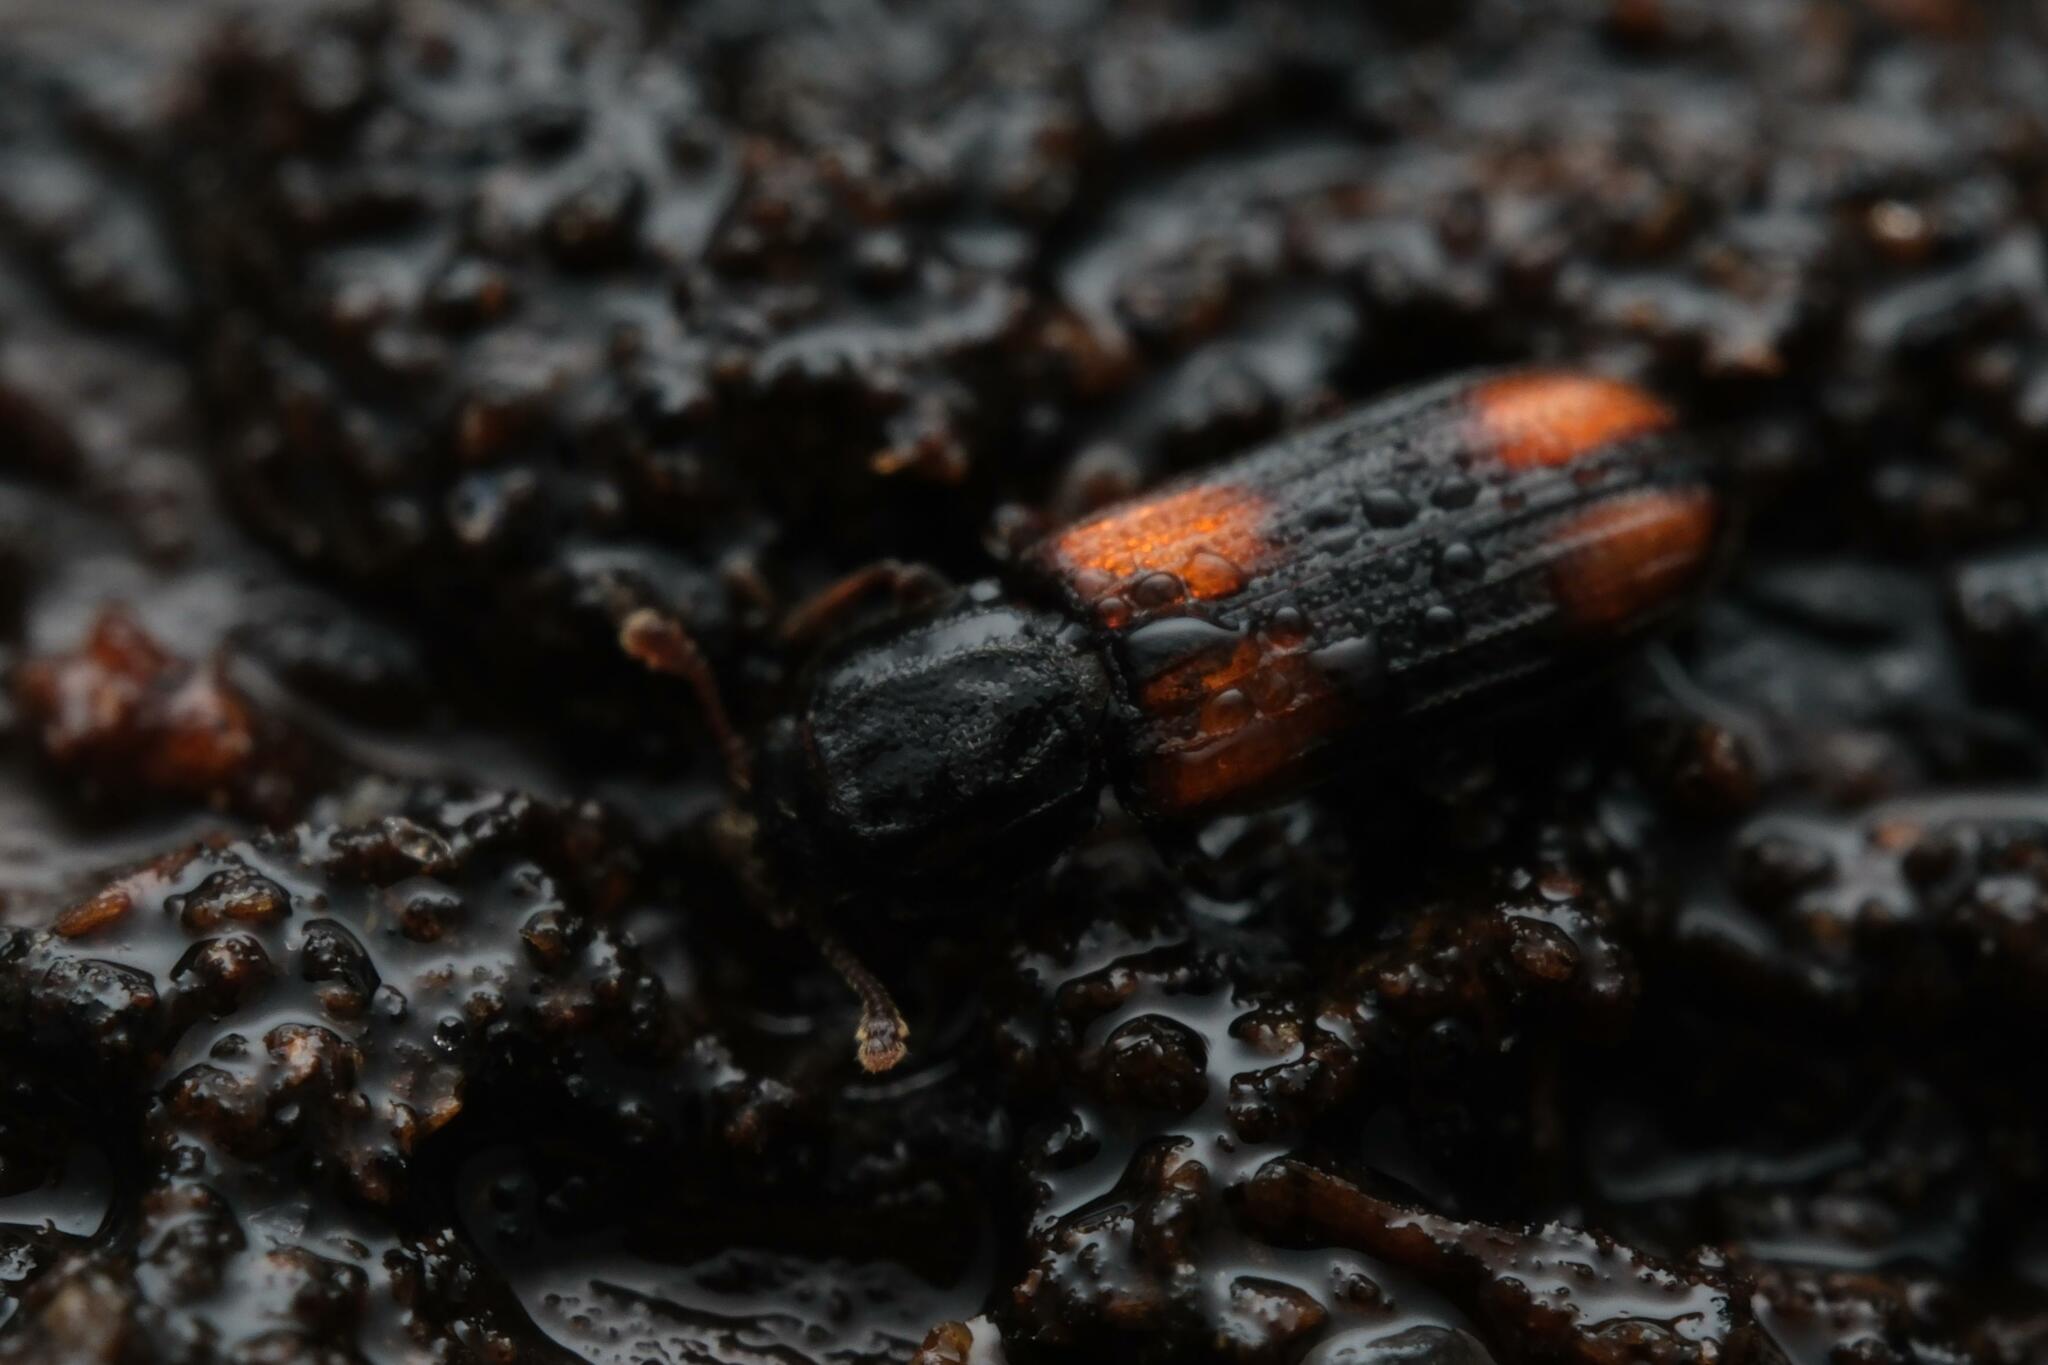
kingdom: Animalia
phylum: Arthropoda
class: Insecta
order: Coleoptera
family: Zopheridae
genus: Bitoma
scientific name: Bitoma crenata
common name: Bark beetle
